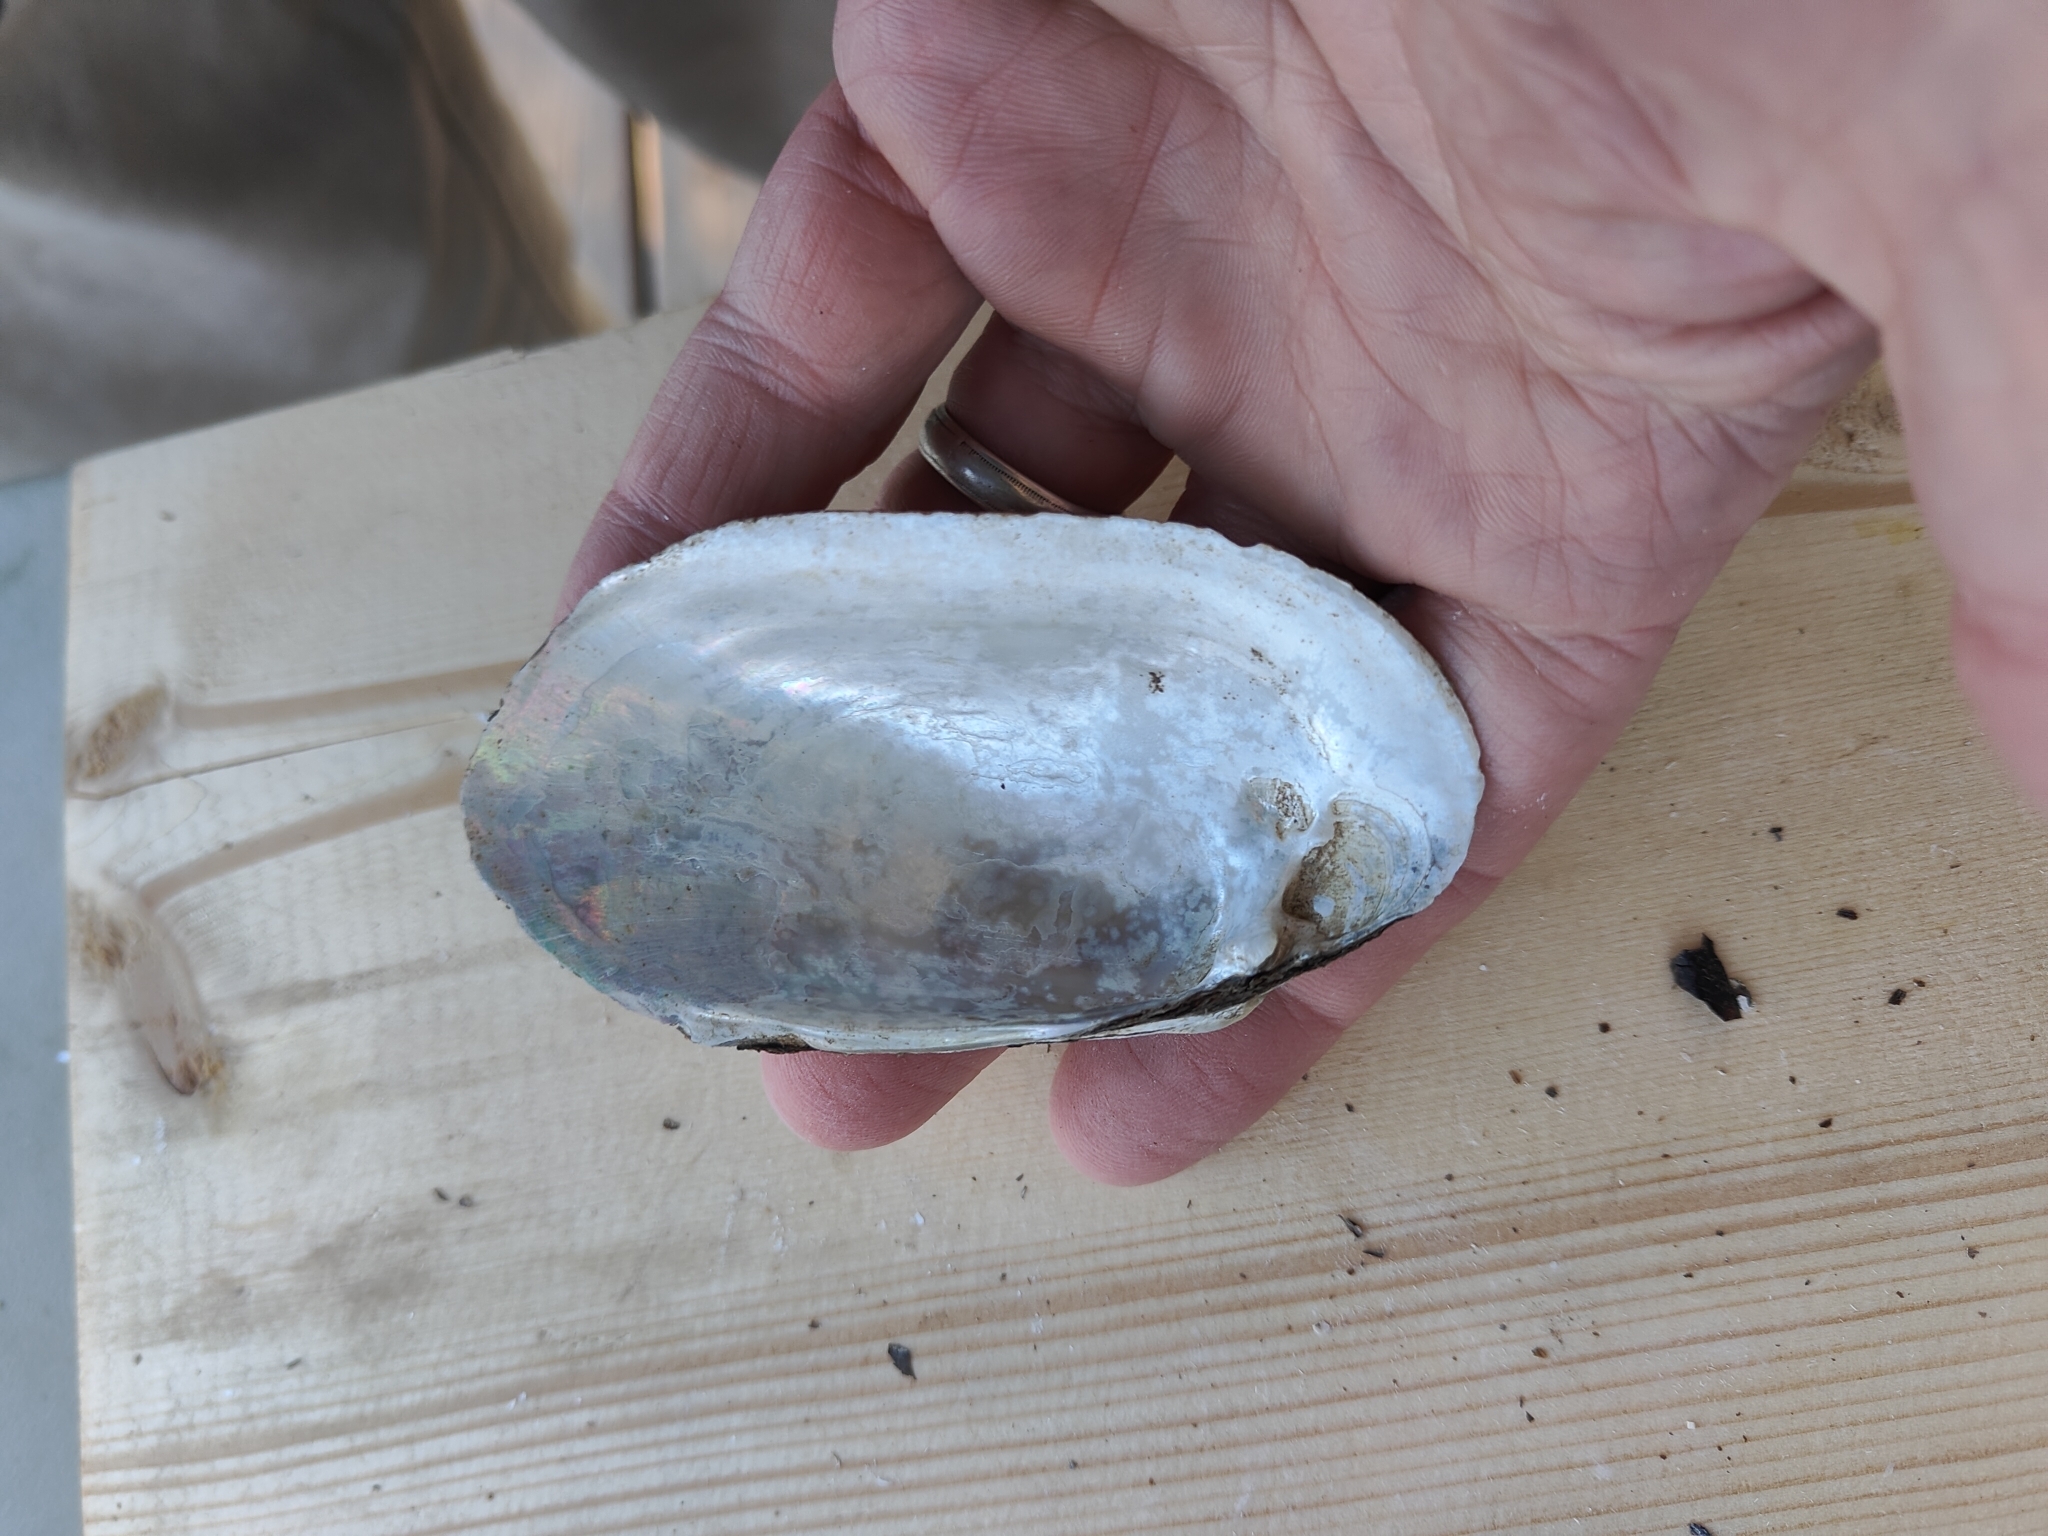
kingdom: Animalia
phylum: Mollusca
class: Bivalvia
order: Unionida
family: Unionidae
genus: Lampsilis
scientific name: Lampsilis siliquoidea
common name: Fatmucket
